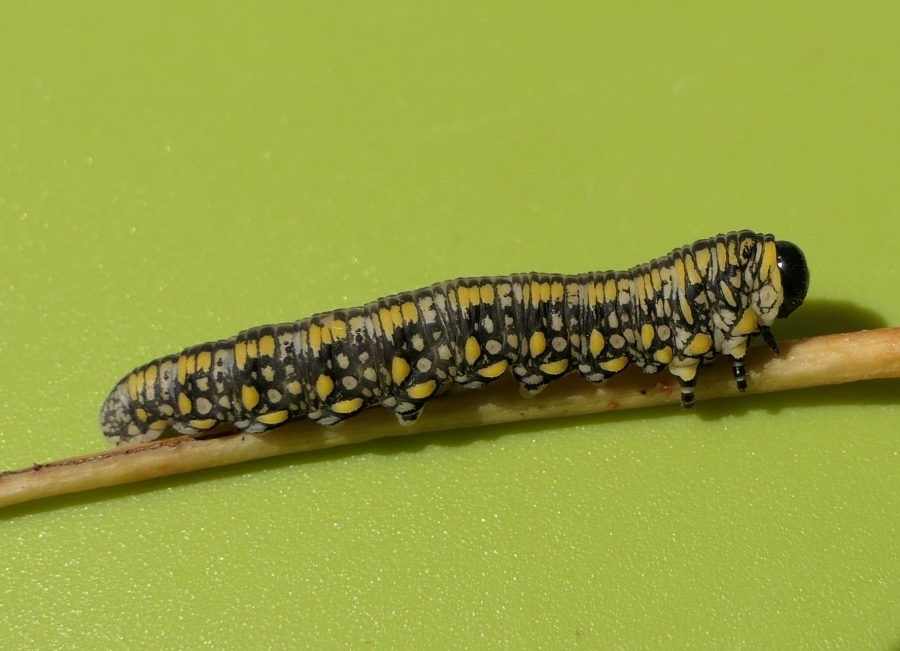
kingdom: Animalia
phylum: Arthropoda
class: Insecta
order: Hymenoptera
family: Diprionidae
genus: Diprion
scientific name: Diprion similis
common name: Pine sawfly
